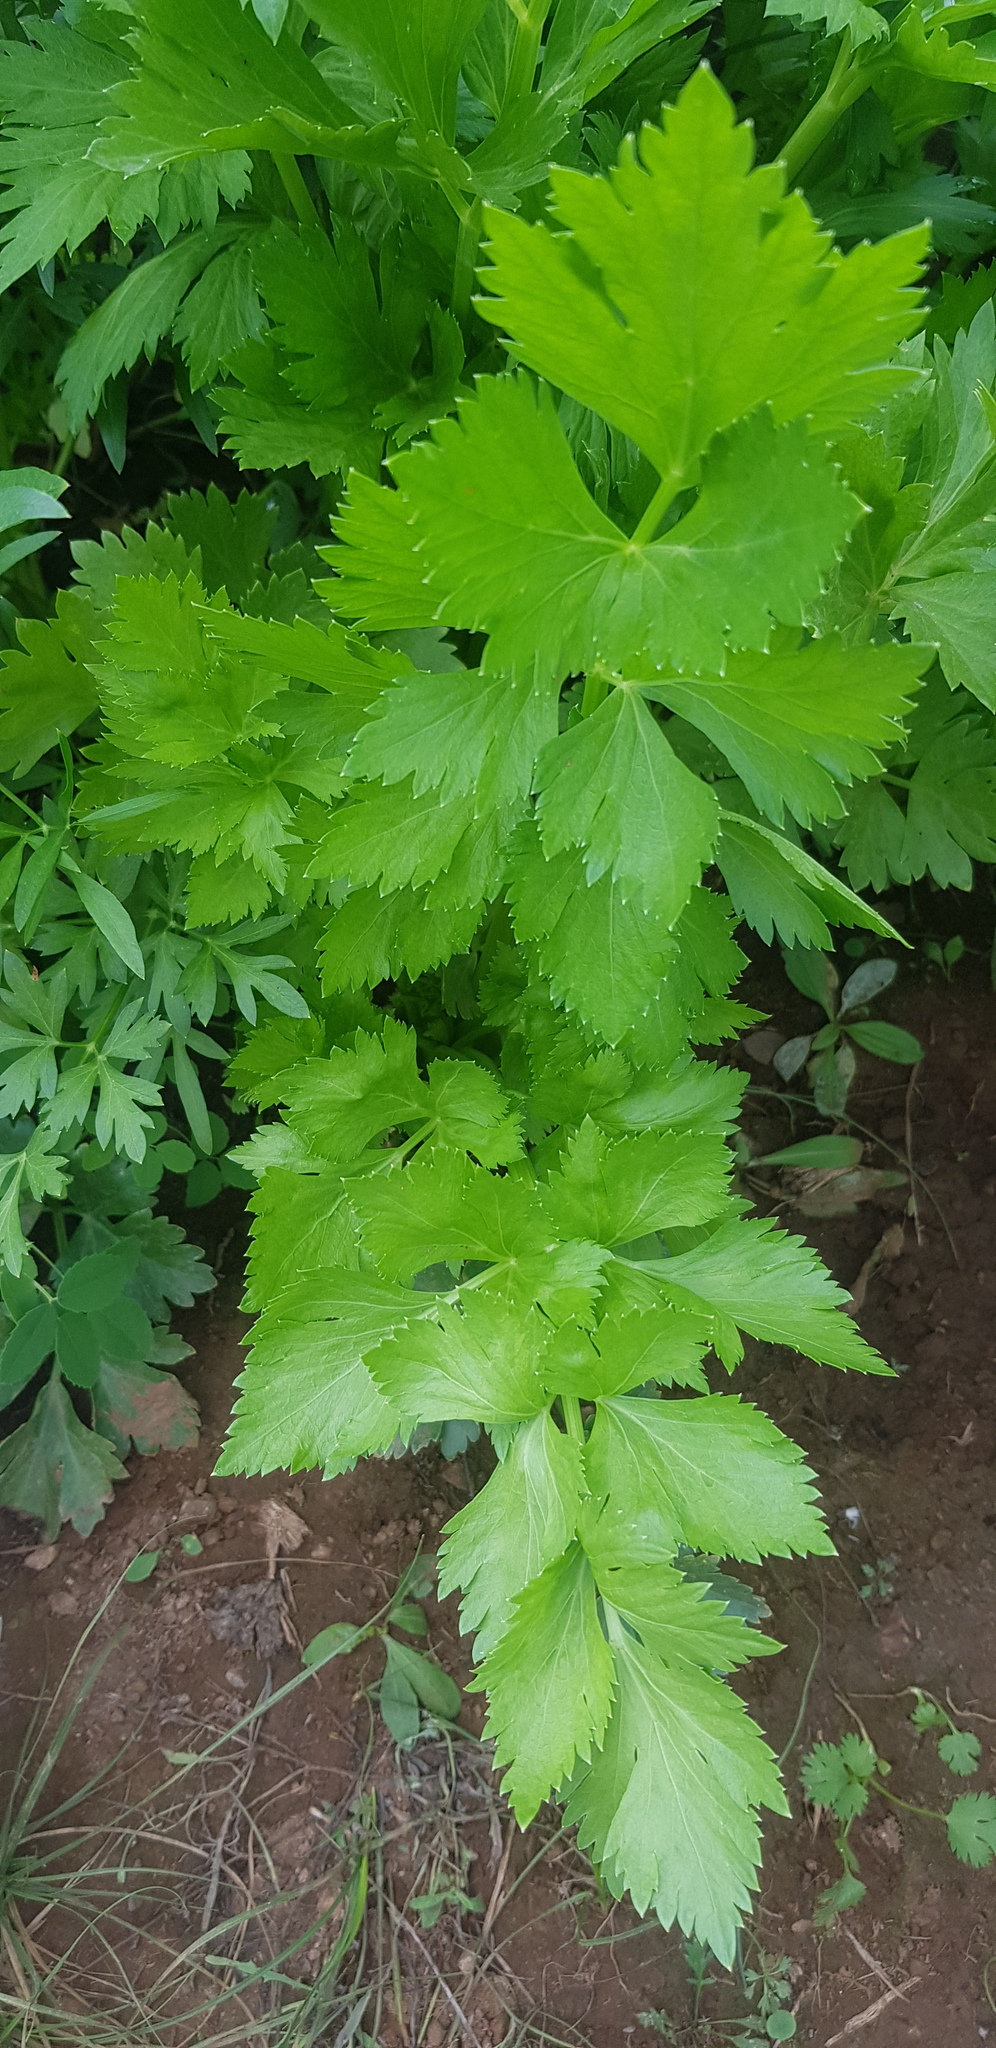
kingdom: Plantae
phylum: Tracheophyta
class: Magnoliopsida
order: Apiales
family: Apiaceae
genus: Apium
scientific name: Apium graveolens
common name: Wild celery
